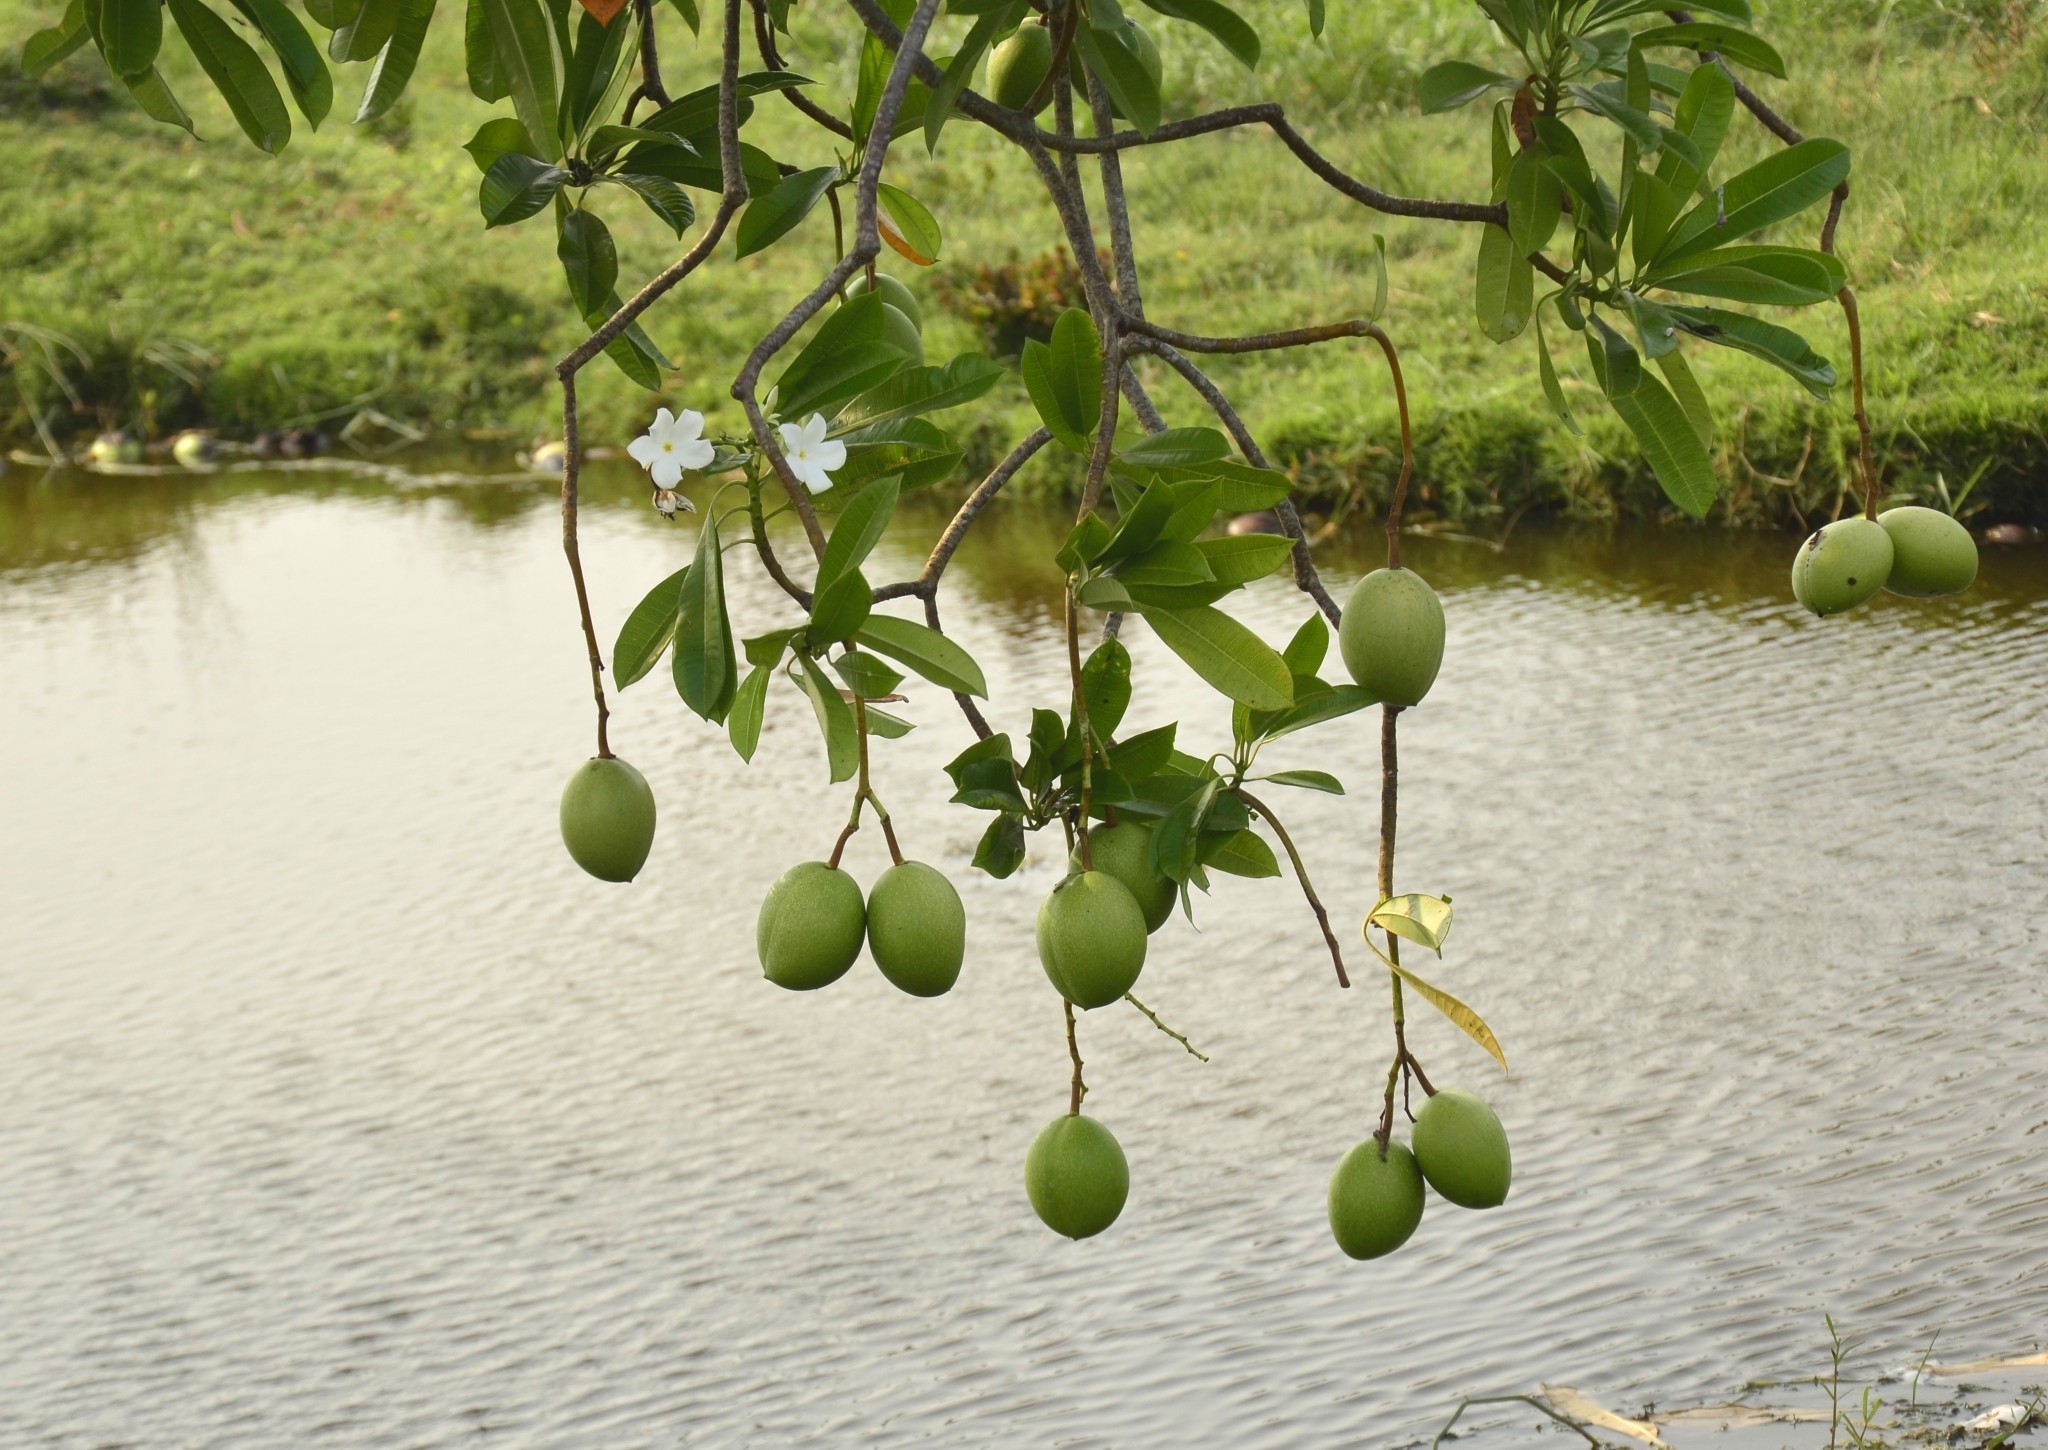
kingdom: Plantae
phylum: Tracheophyta
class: Magnoliopsida
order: Gentianales
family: Apocynaceae
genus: Cerbera
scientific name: Cerbera odollam
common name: Pong-pong
